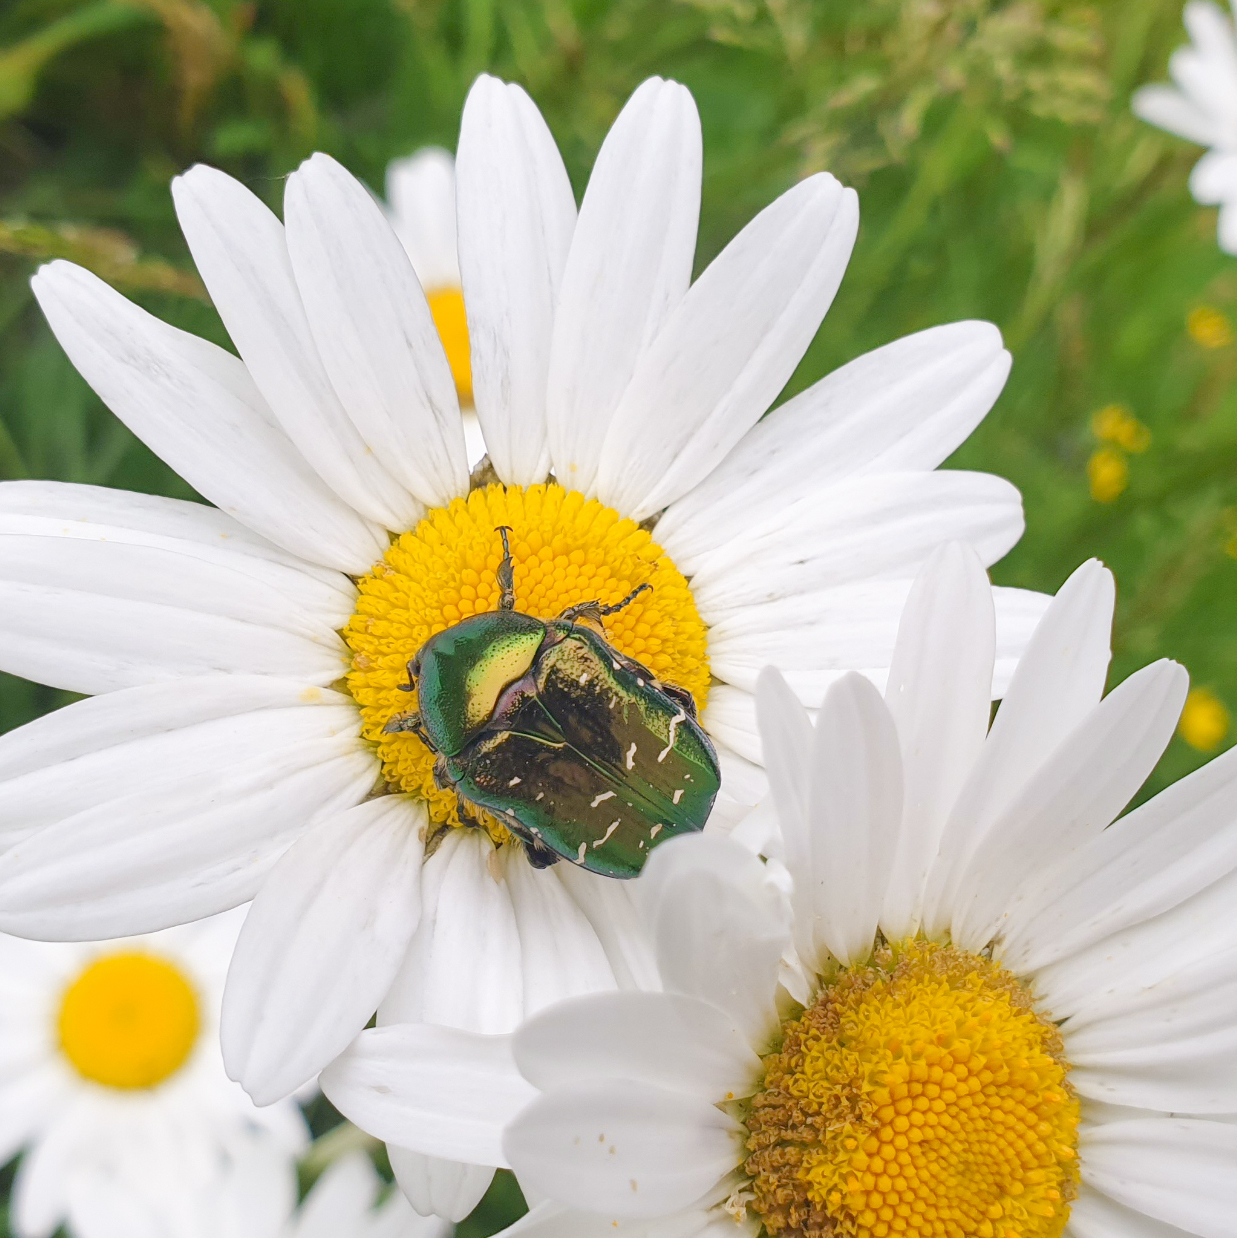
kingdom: Animalia
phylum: Arthropoda
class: Insecta
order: Coleoptera
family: Scarabaeidae
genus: Cetonia
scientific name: Cetonia aurata
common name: Rose chafer
